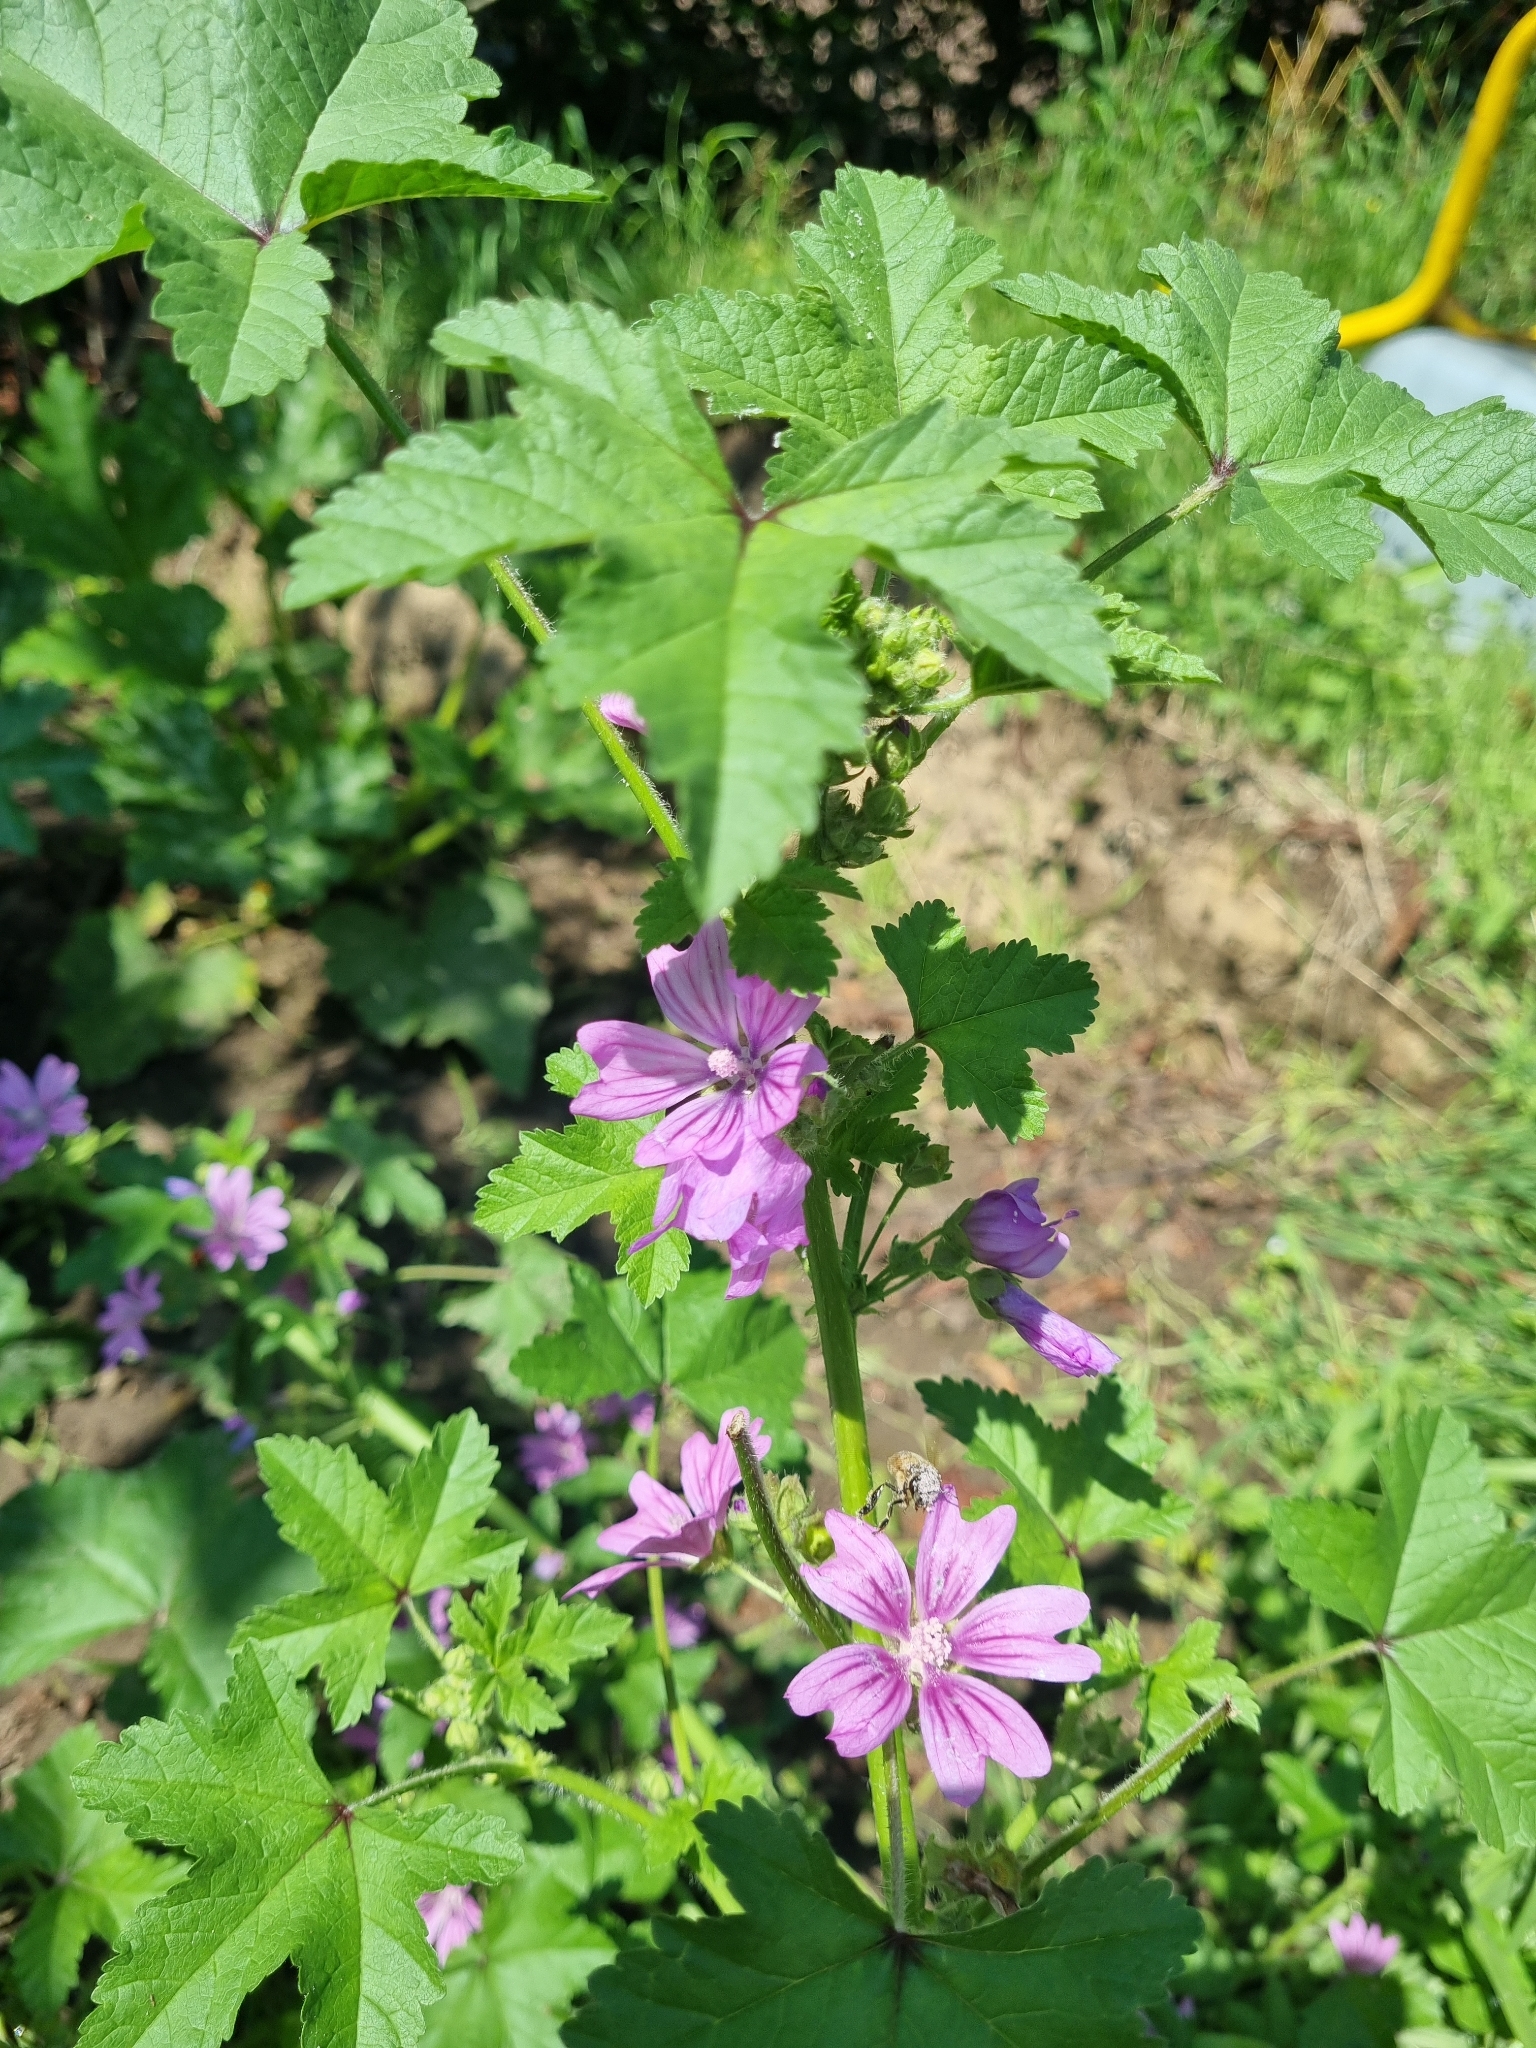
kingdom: Plantae
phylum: Tracheophyta
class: Magnoliopsida
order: Malvales
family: Malvaceae
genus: Malva
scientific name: Malva sylvestris
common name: Common mallow
